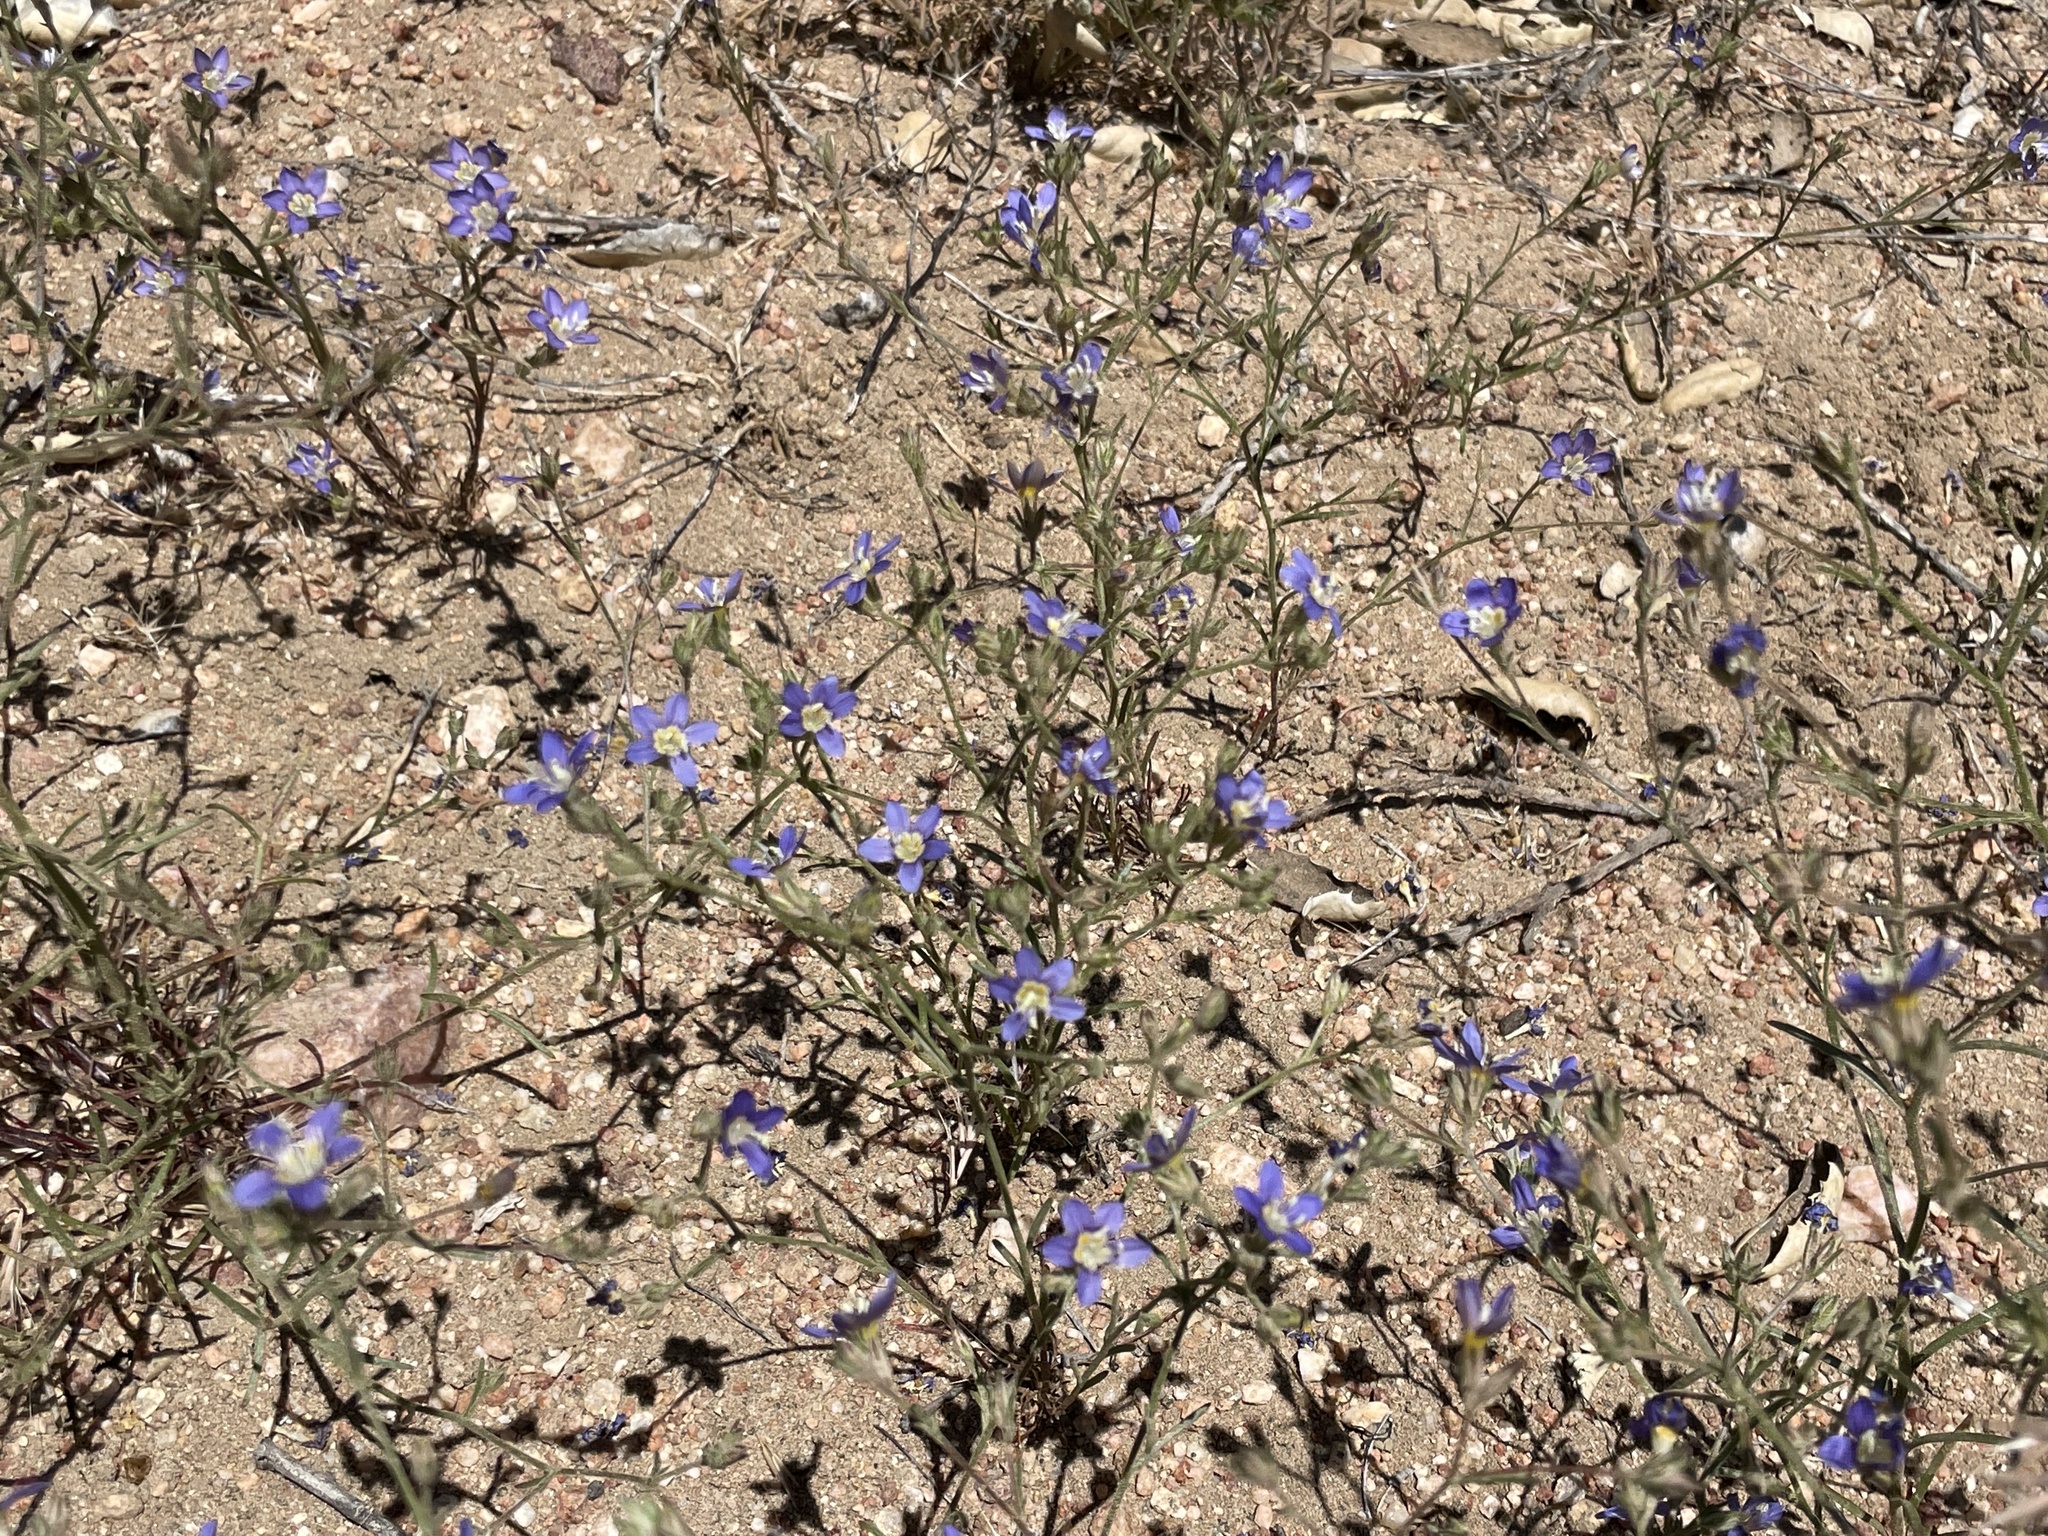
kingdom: Plantae
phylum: Tracheophyta
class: Magnoliopsida
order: Ericales
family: Polemoniaceae
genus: Eriastrum
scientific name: Eriastrum sapphirinum
